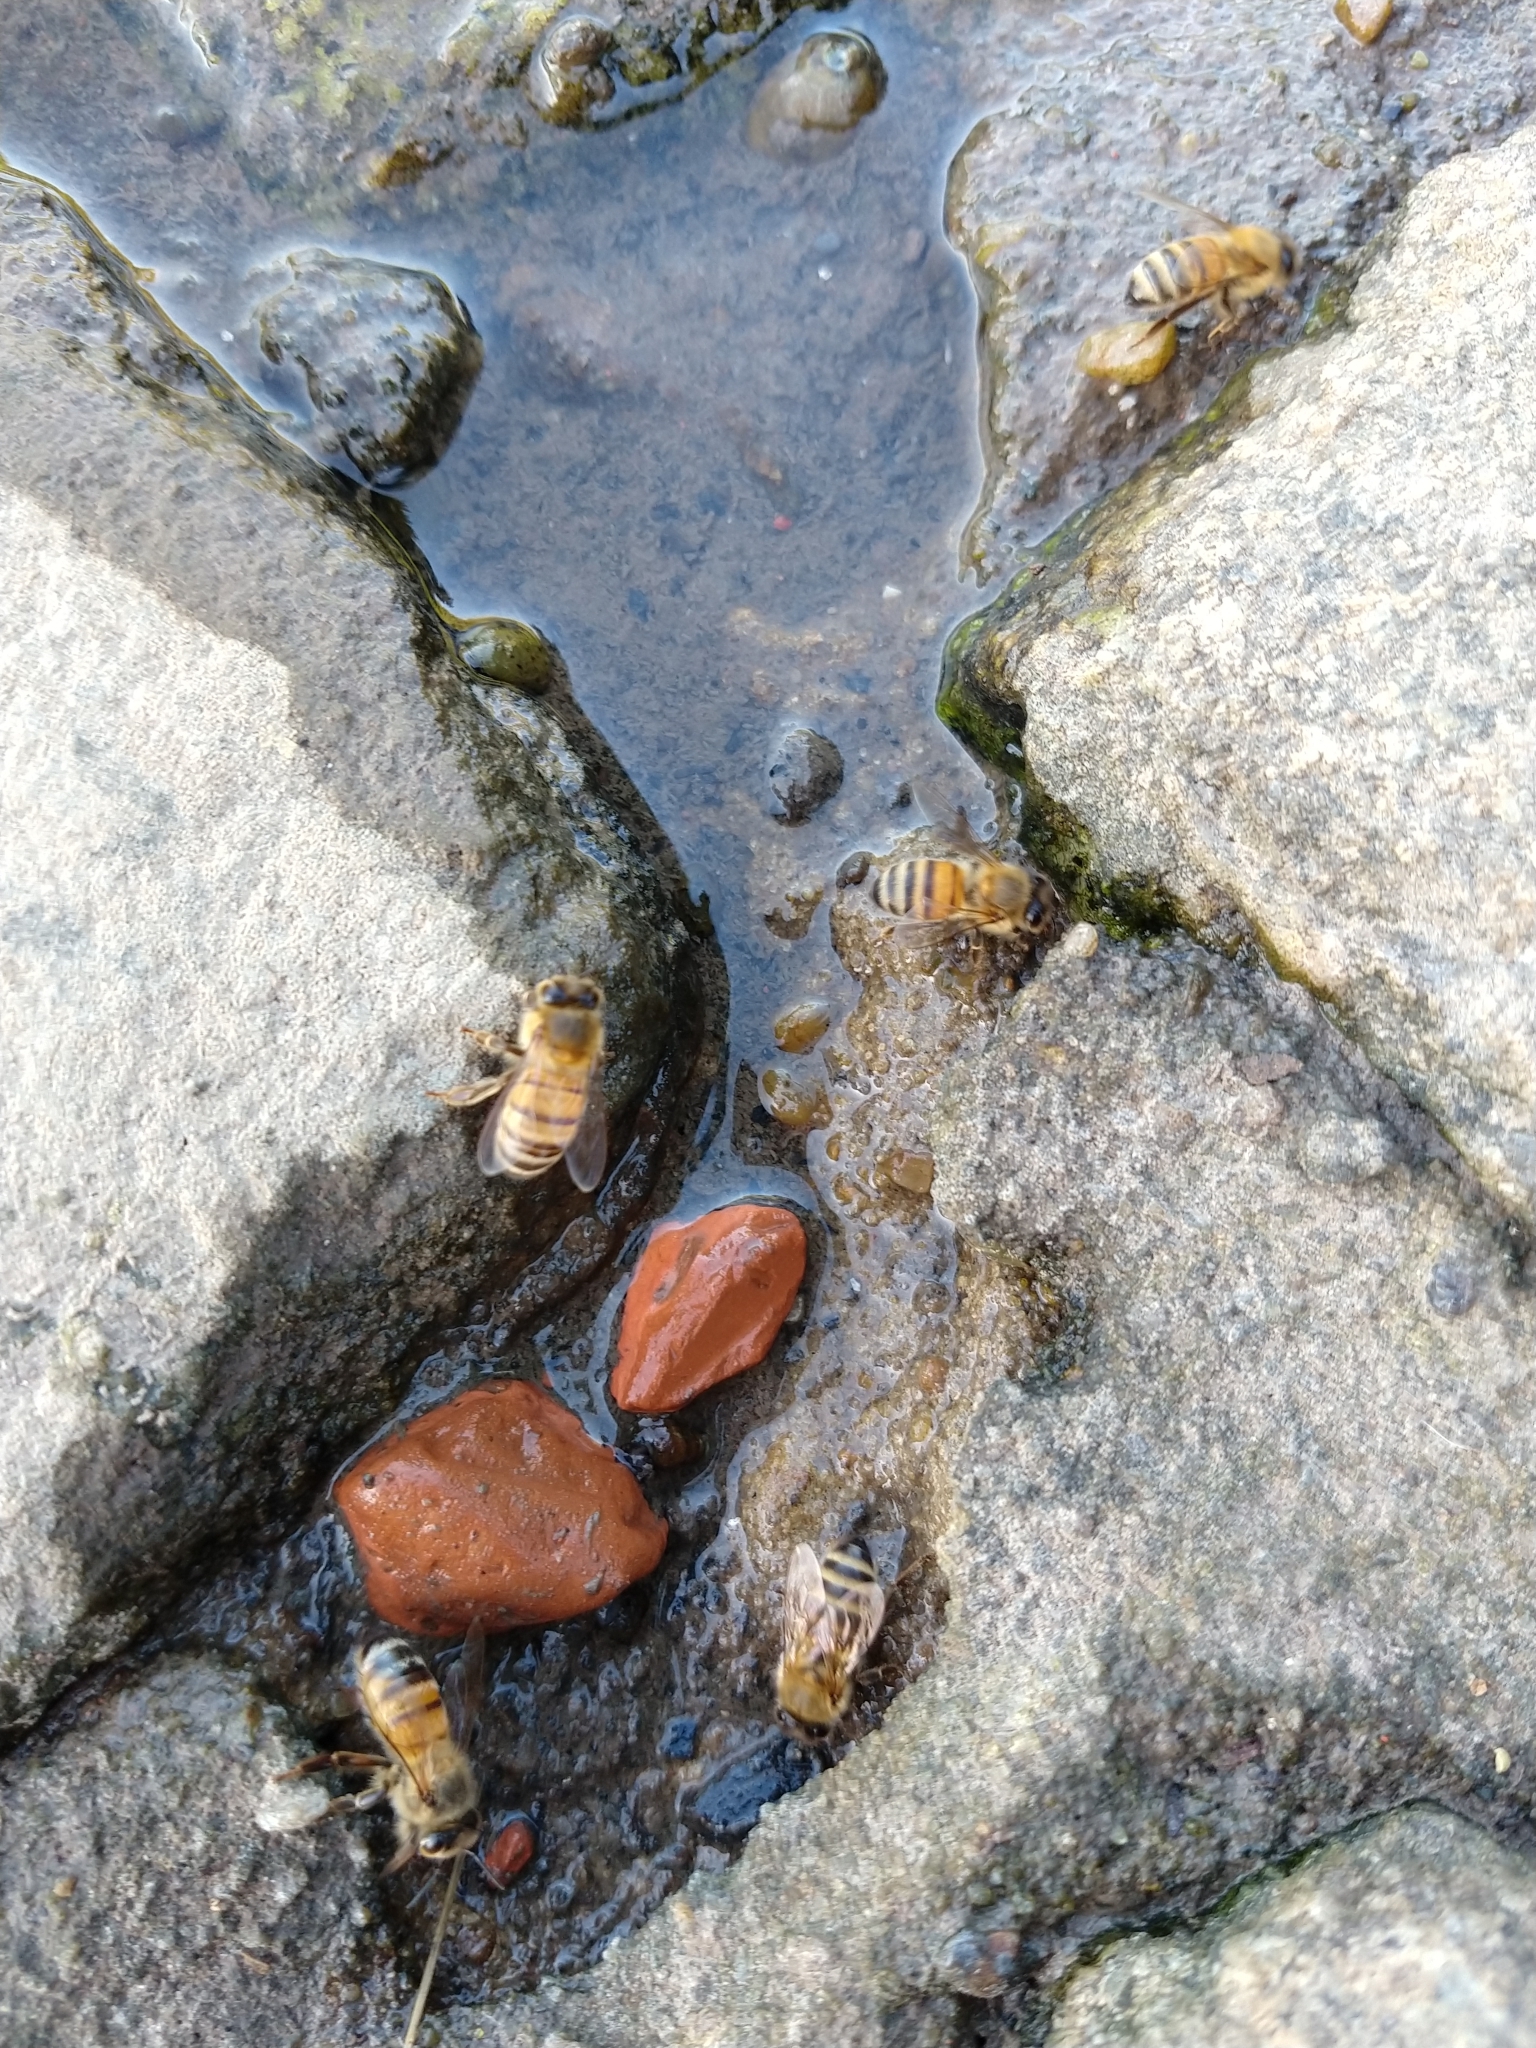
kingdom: Animalia
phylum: Arthropoda
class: Insecta
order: Hymenoptera
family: Apidae
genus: Apis
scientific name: Apis mellifera
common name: Honey bee
